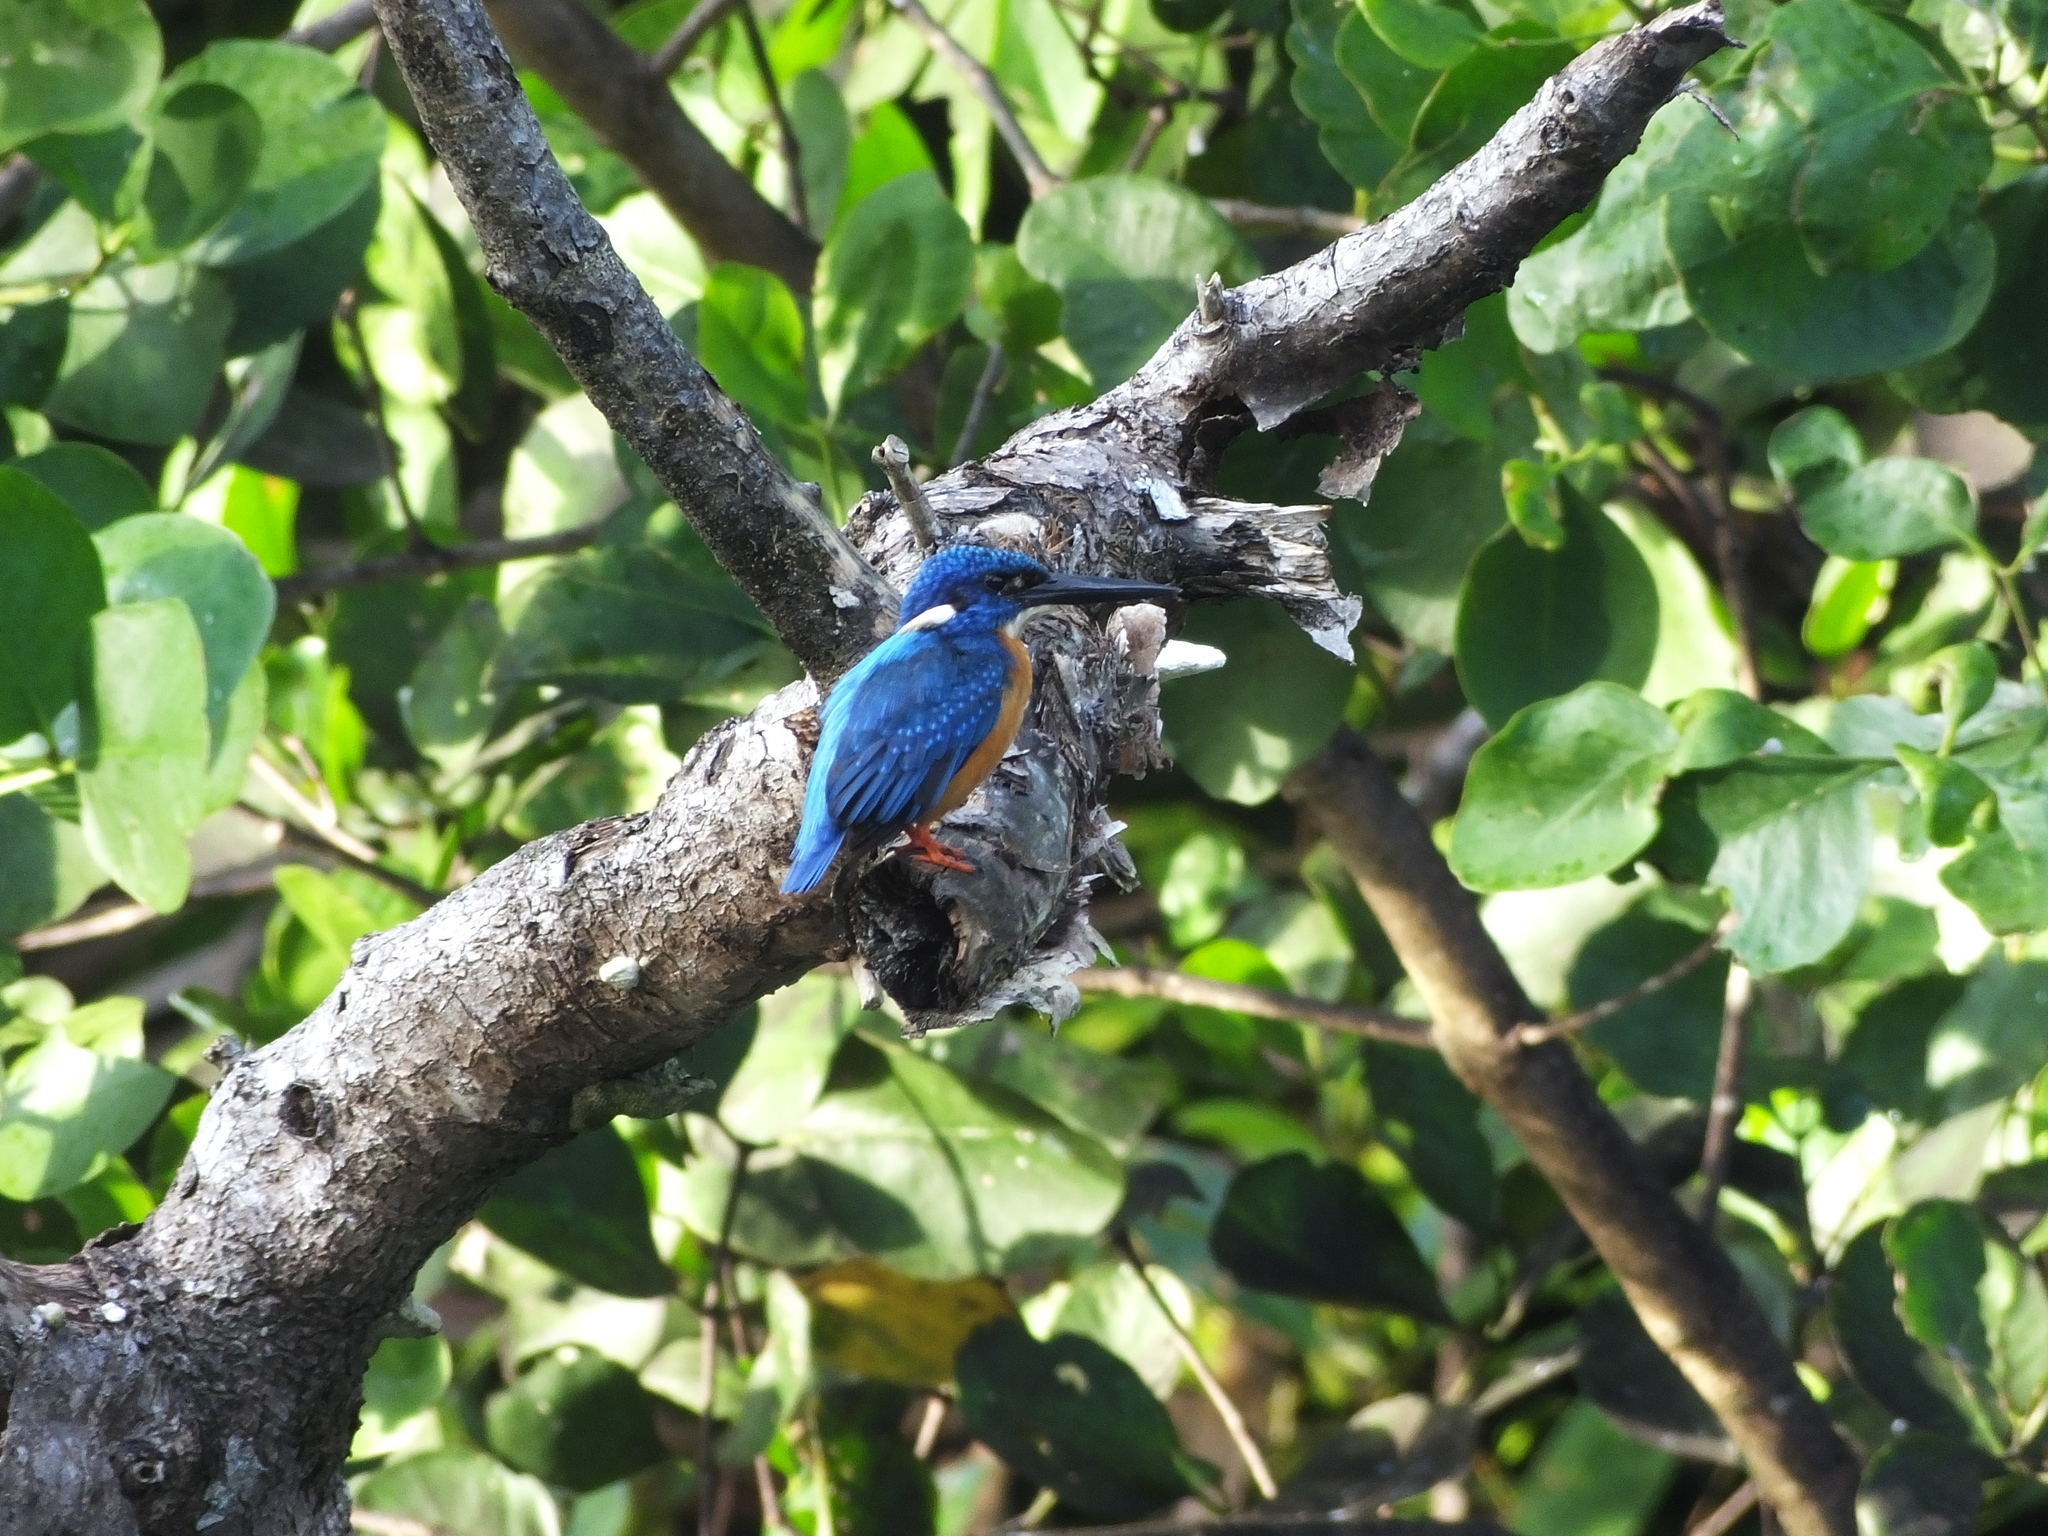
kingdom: Animalia
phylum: Chordata
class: Aves
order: Coraciiformes
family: Alcedinidae
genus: Alcedo
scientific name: Alcedo atthis
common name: Common kingfisher
